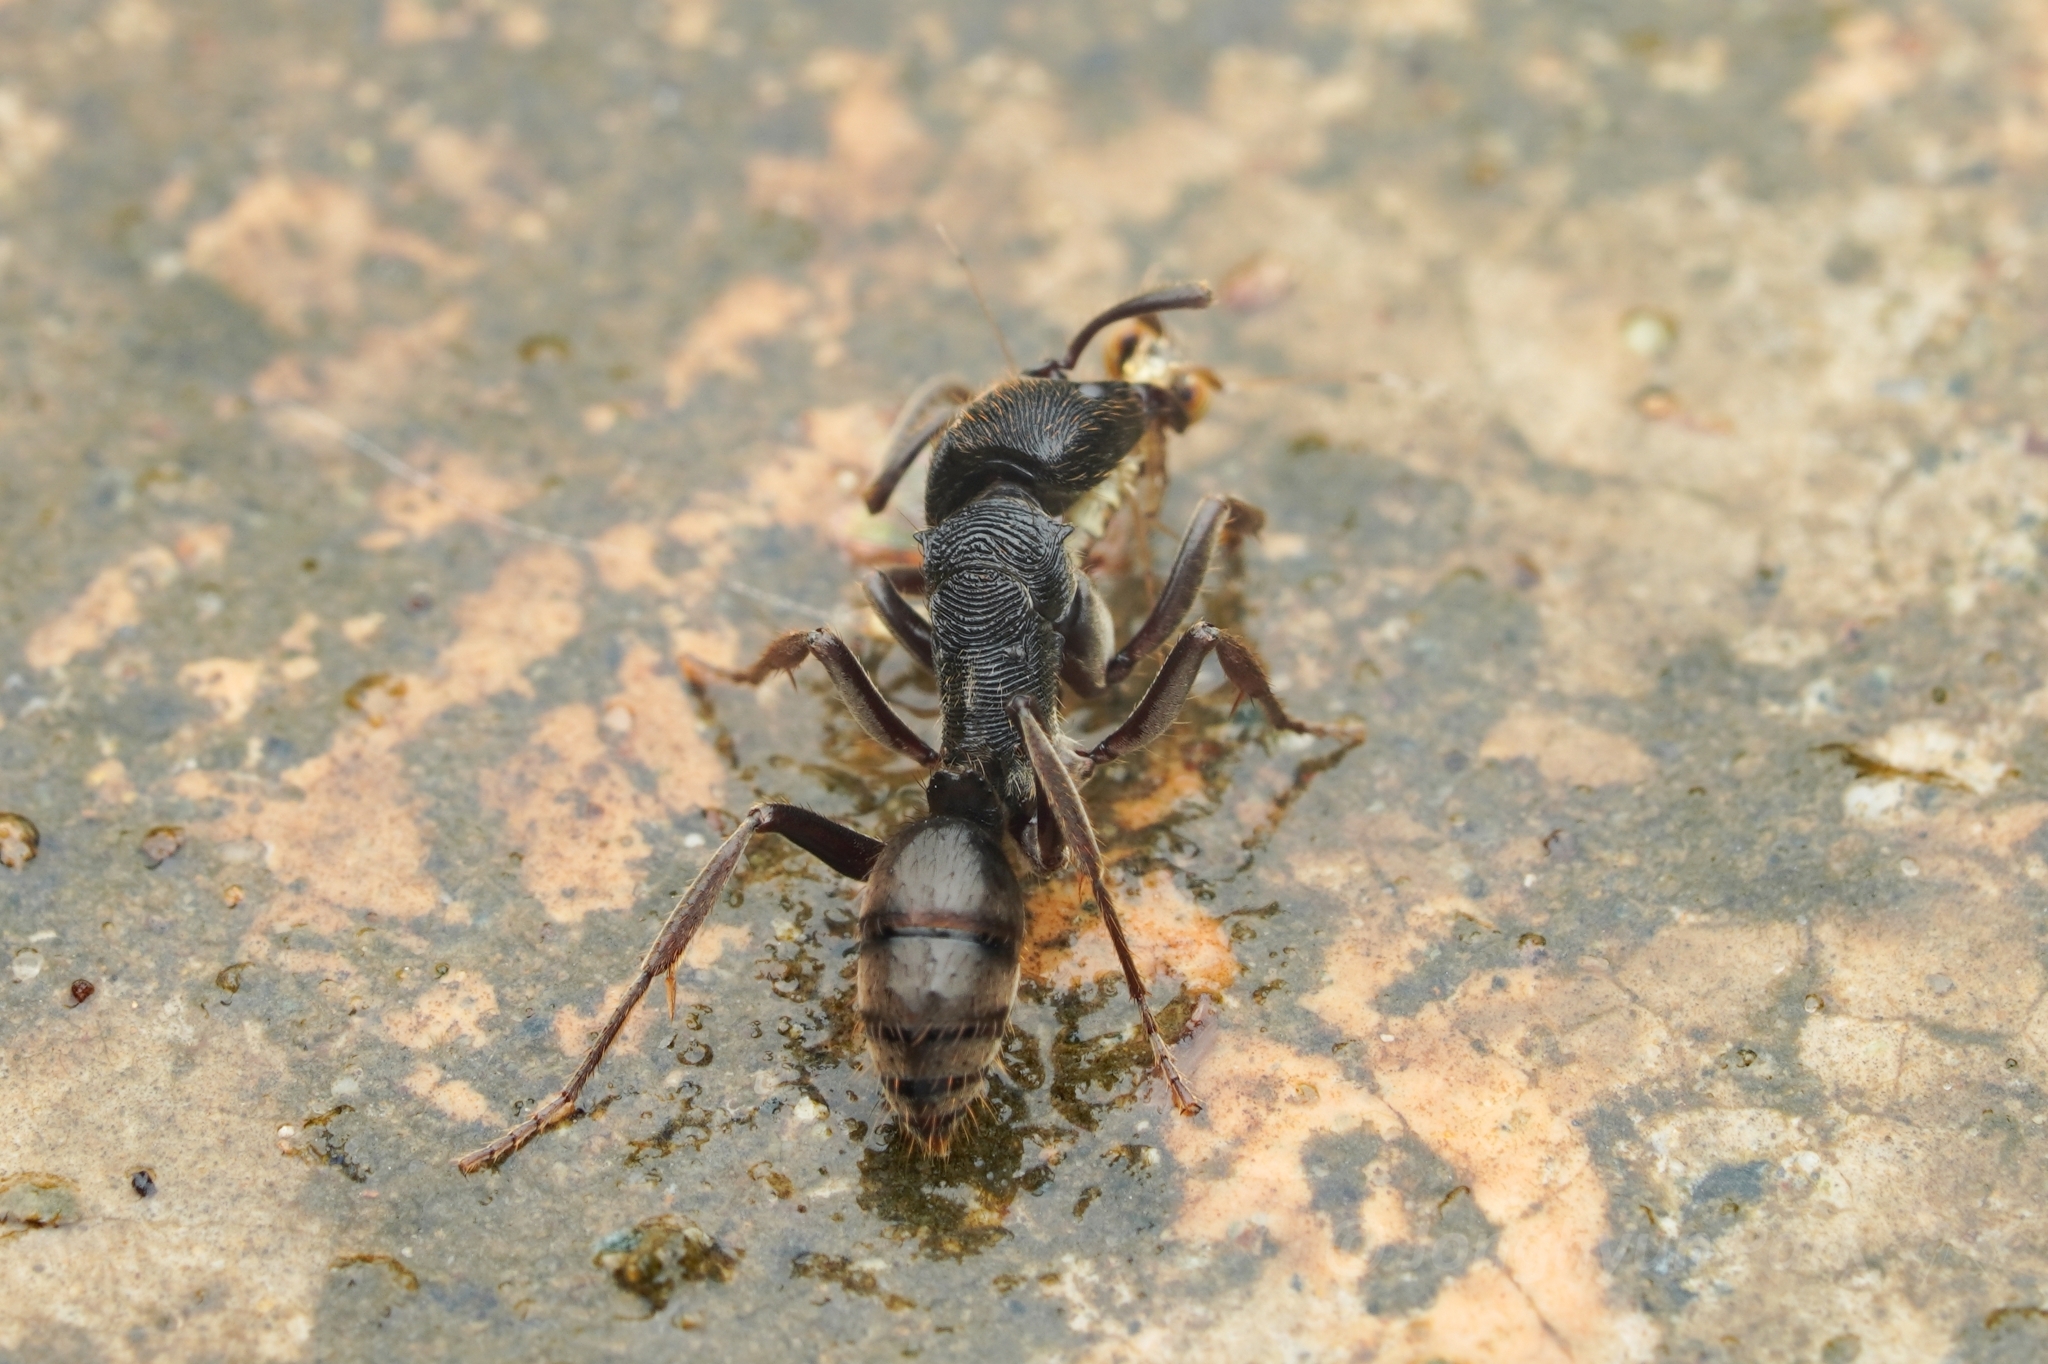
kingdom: Animalia
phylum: Arthropoda
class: Insecta
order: Hymenoptera
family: Formicidae
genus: Odontoponera
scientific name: Odontoponera denticulata
